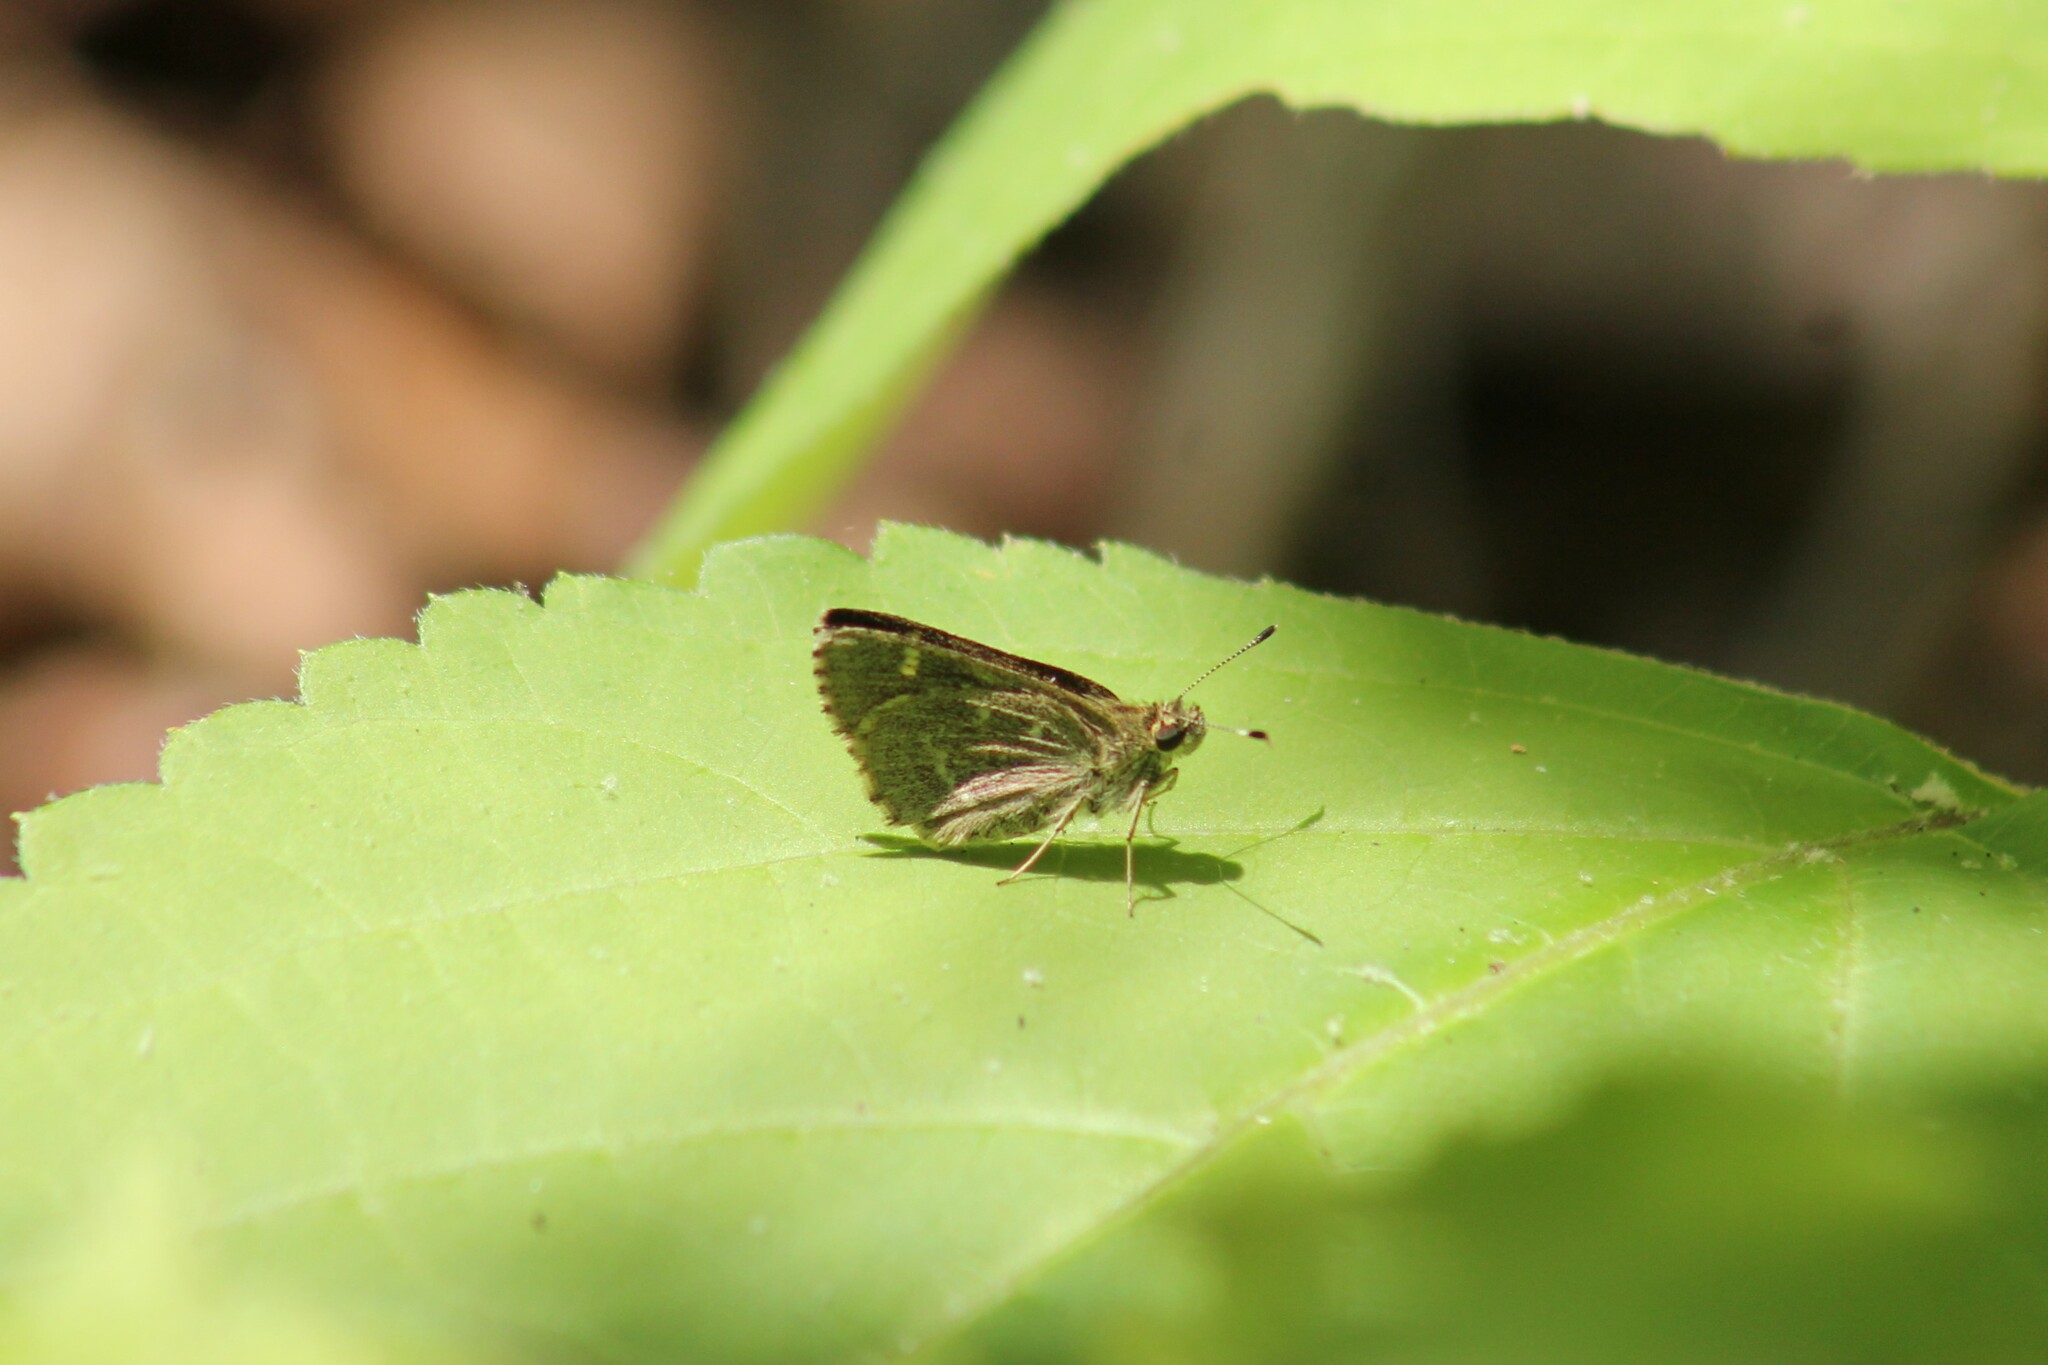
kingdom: Animalia
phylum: Arthropoda
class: Insecta
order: Lepidoptera
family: Hesperiidae
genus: Mastor
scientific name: Mastor hegon
